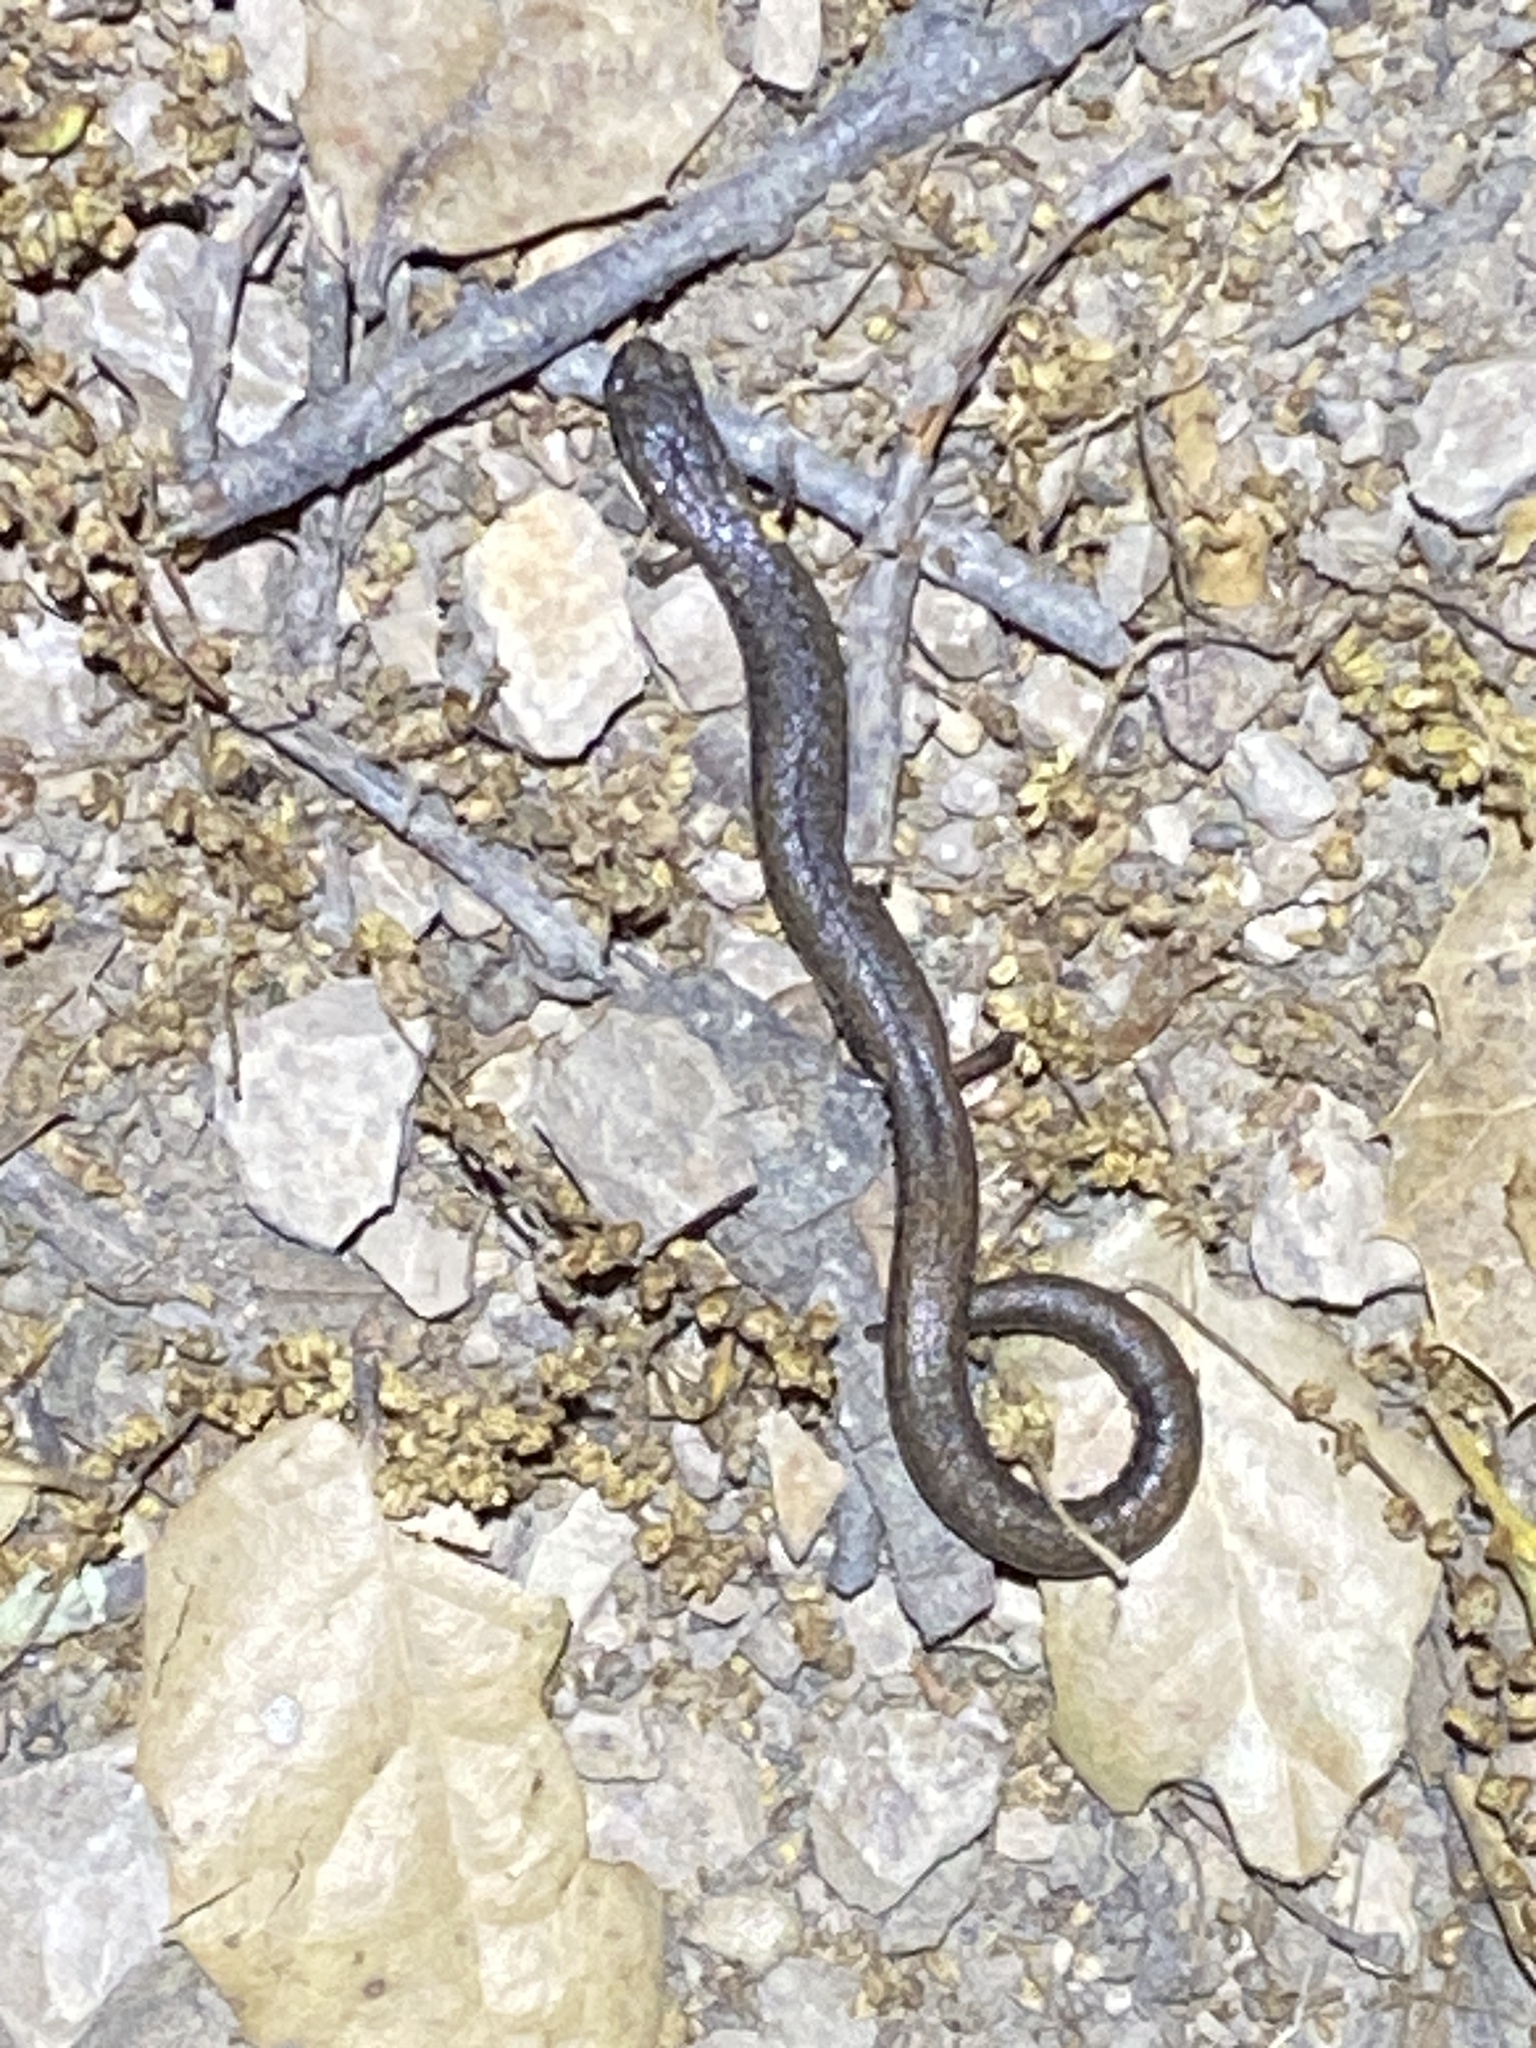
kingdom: Animalia
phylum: Chordata
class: Amphibia
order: Caudata
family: Plethodontidae
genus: Batrachoseps
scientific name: Batrachoseps attenuatus
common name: California slender salamander
